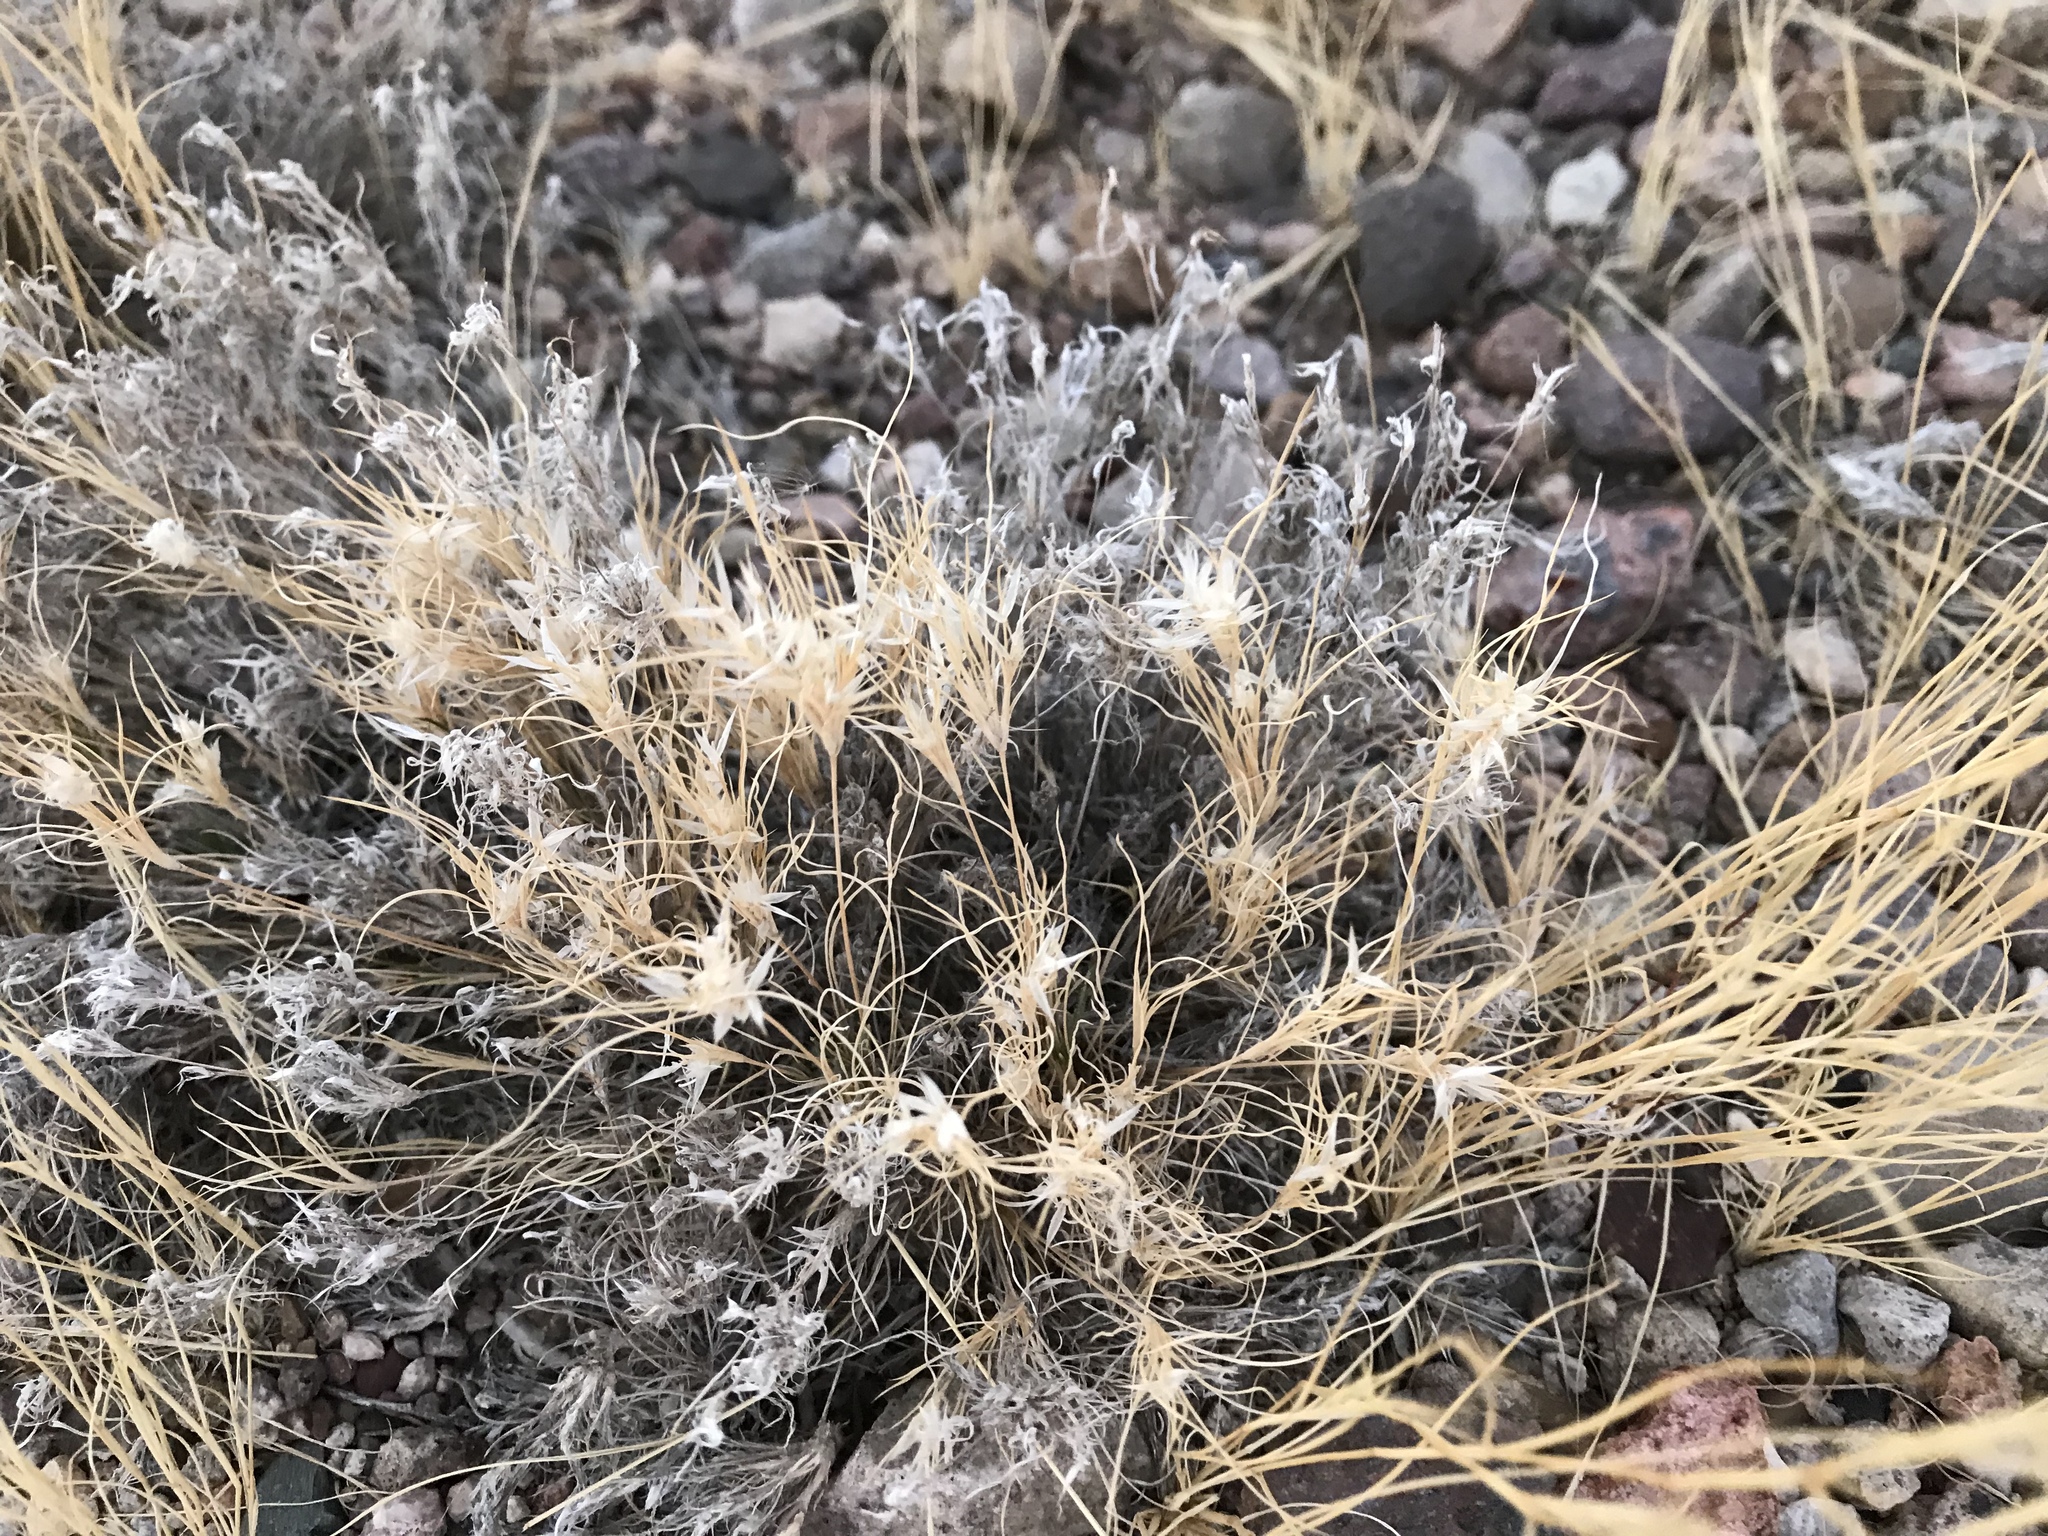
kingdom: Plantae
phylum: Tracheophyta
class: Liliopsida
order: Poales
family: Poaceae
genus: Dasyochloa
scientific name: Dasyochloa pulchella
